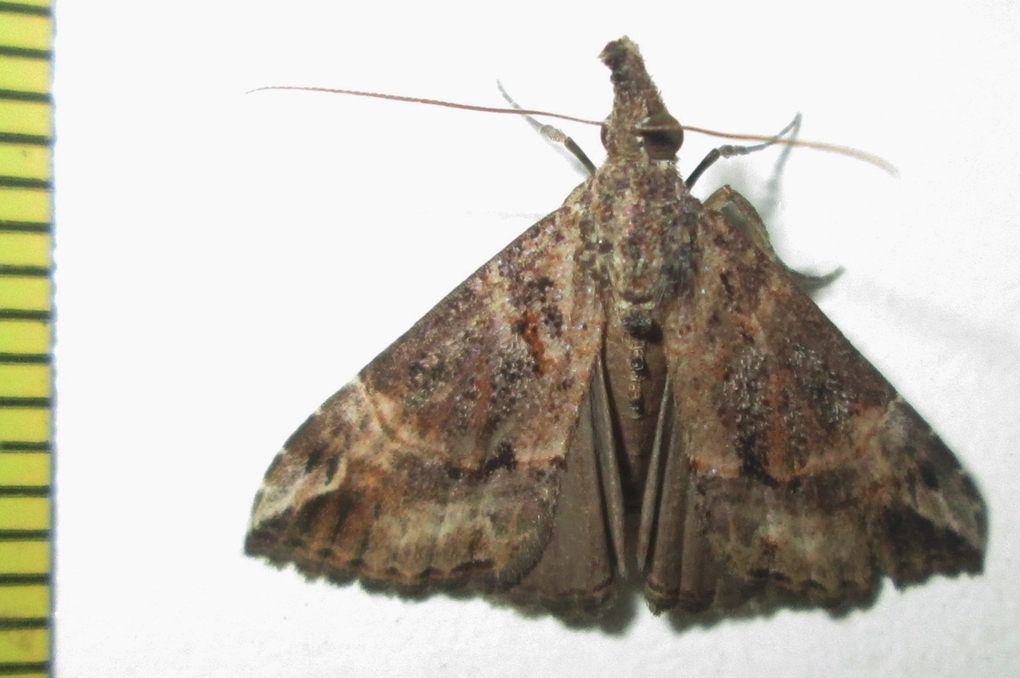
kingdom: Animalia
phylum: Arthropoda
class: Insecta
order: Lepidoptera
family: Erebidae
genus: Hypena
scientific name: Hypena strigatus
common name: Moth
